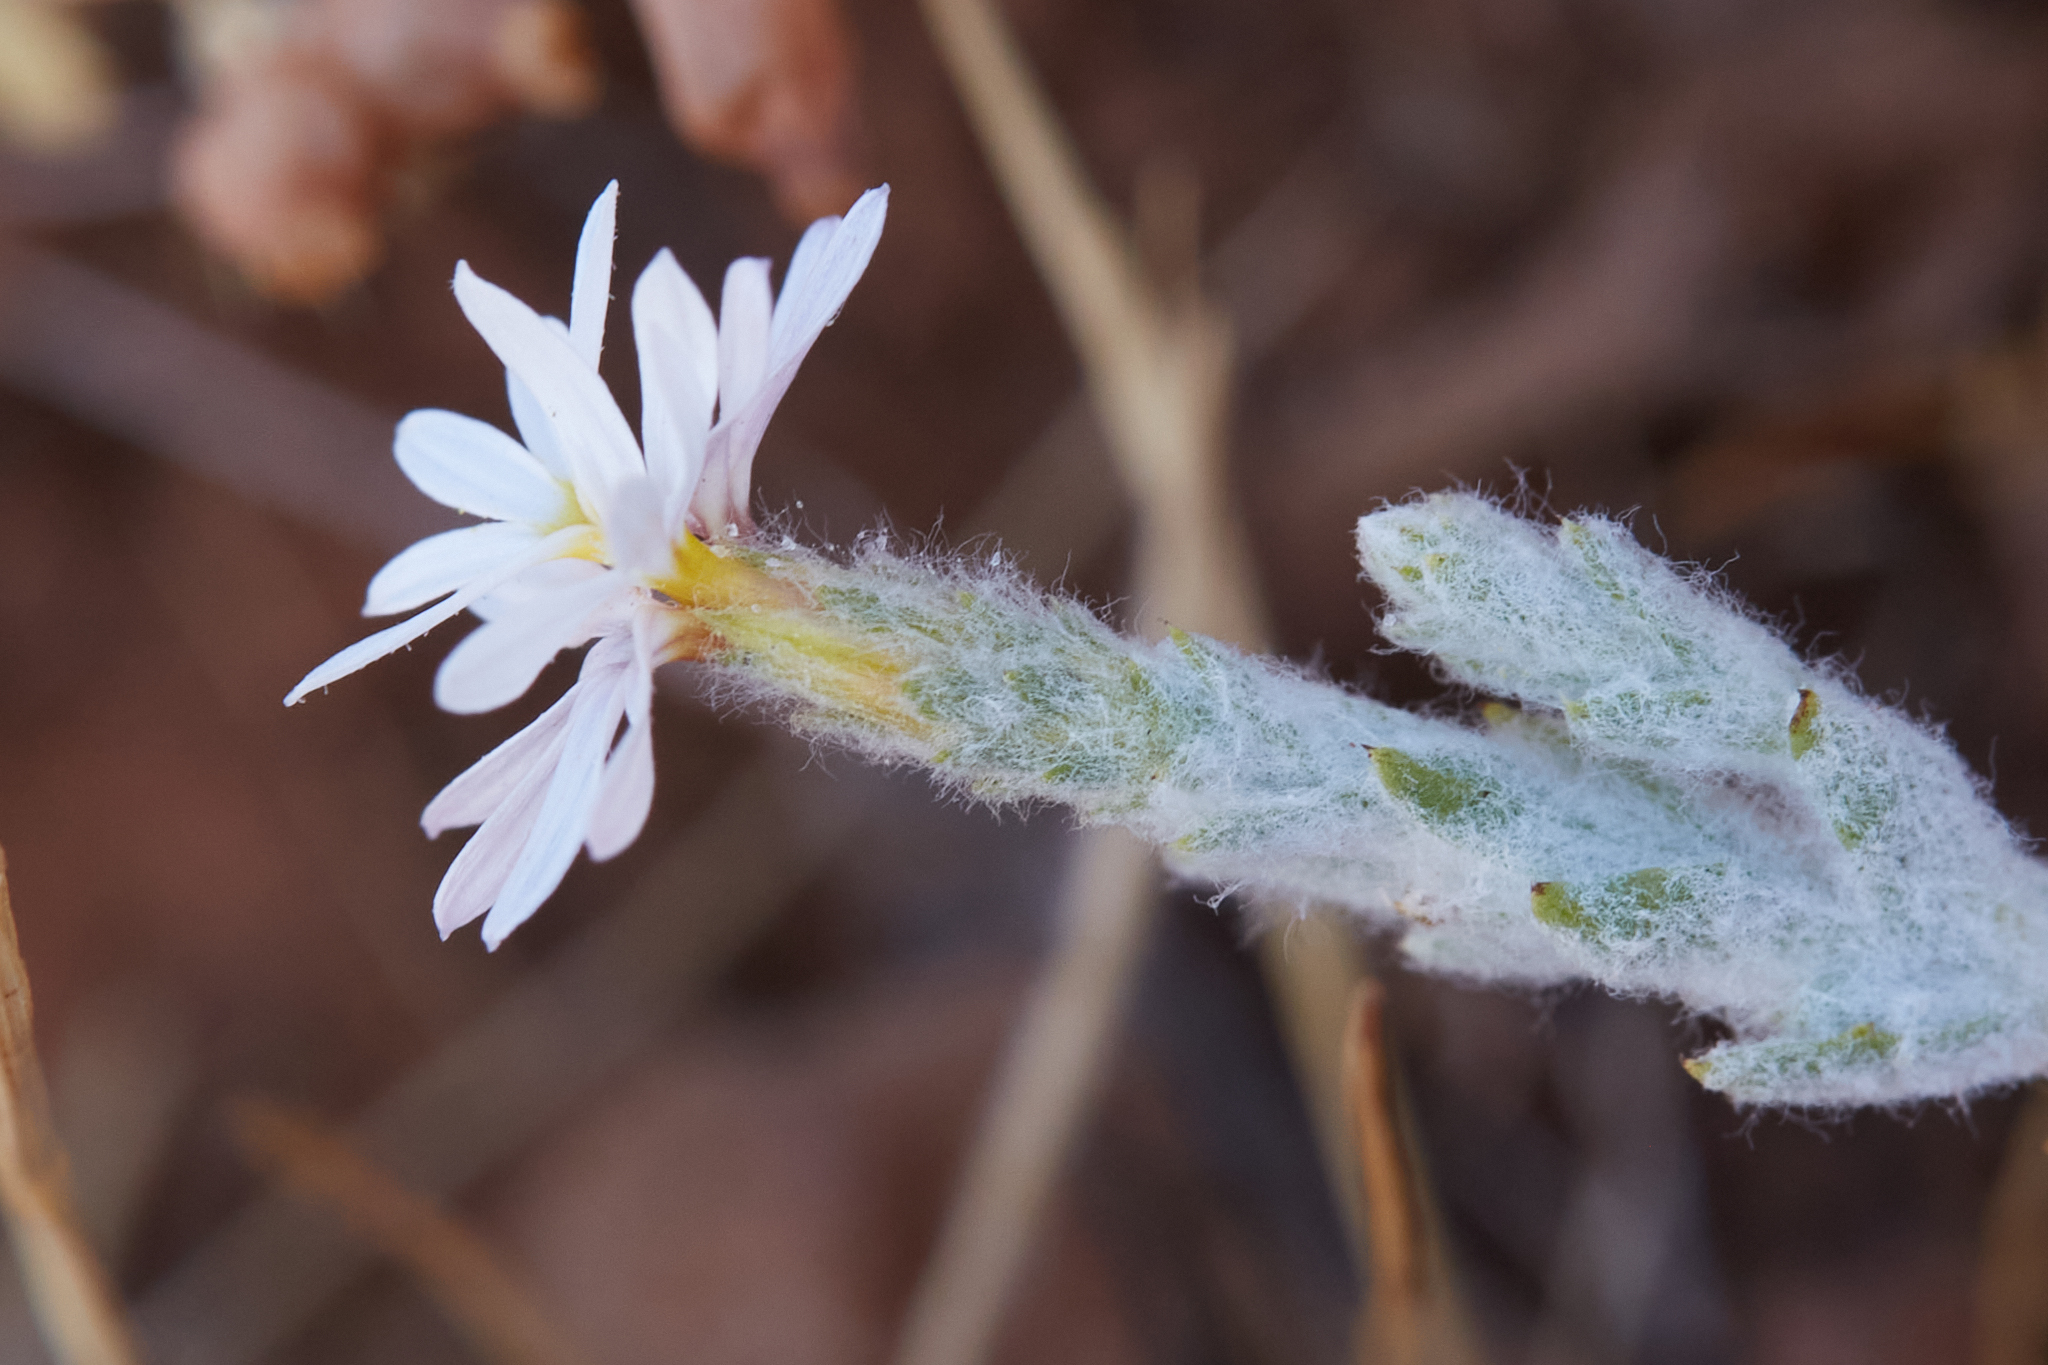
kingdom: Plantae
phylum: Tracheophyta
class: Magnoliopsida
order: Asterales
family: Asteraceae
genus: Lessingia
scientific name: Lessingia virgata
